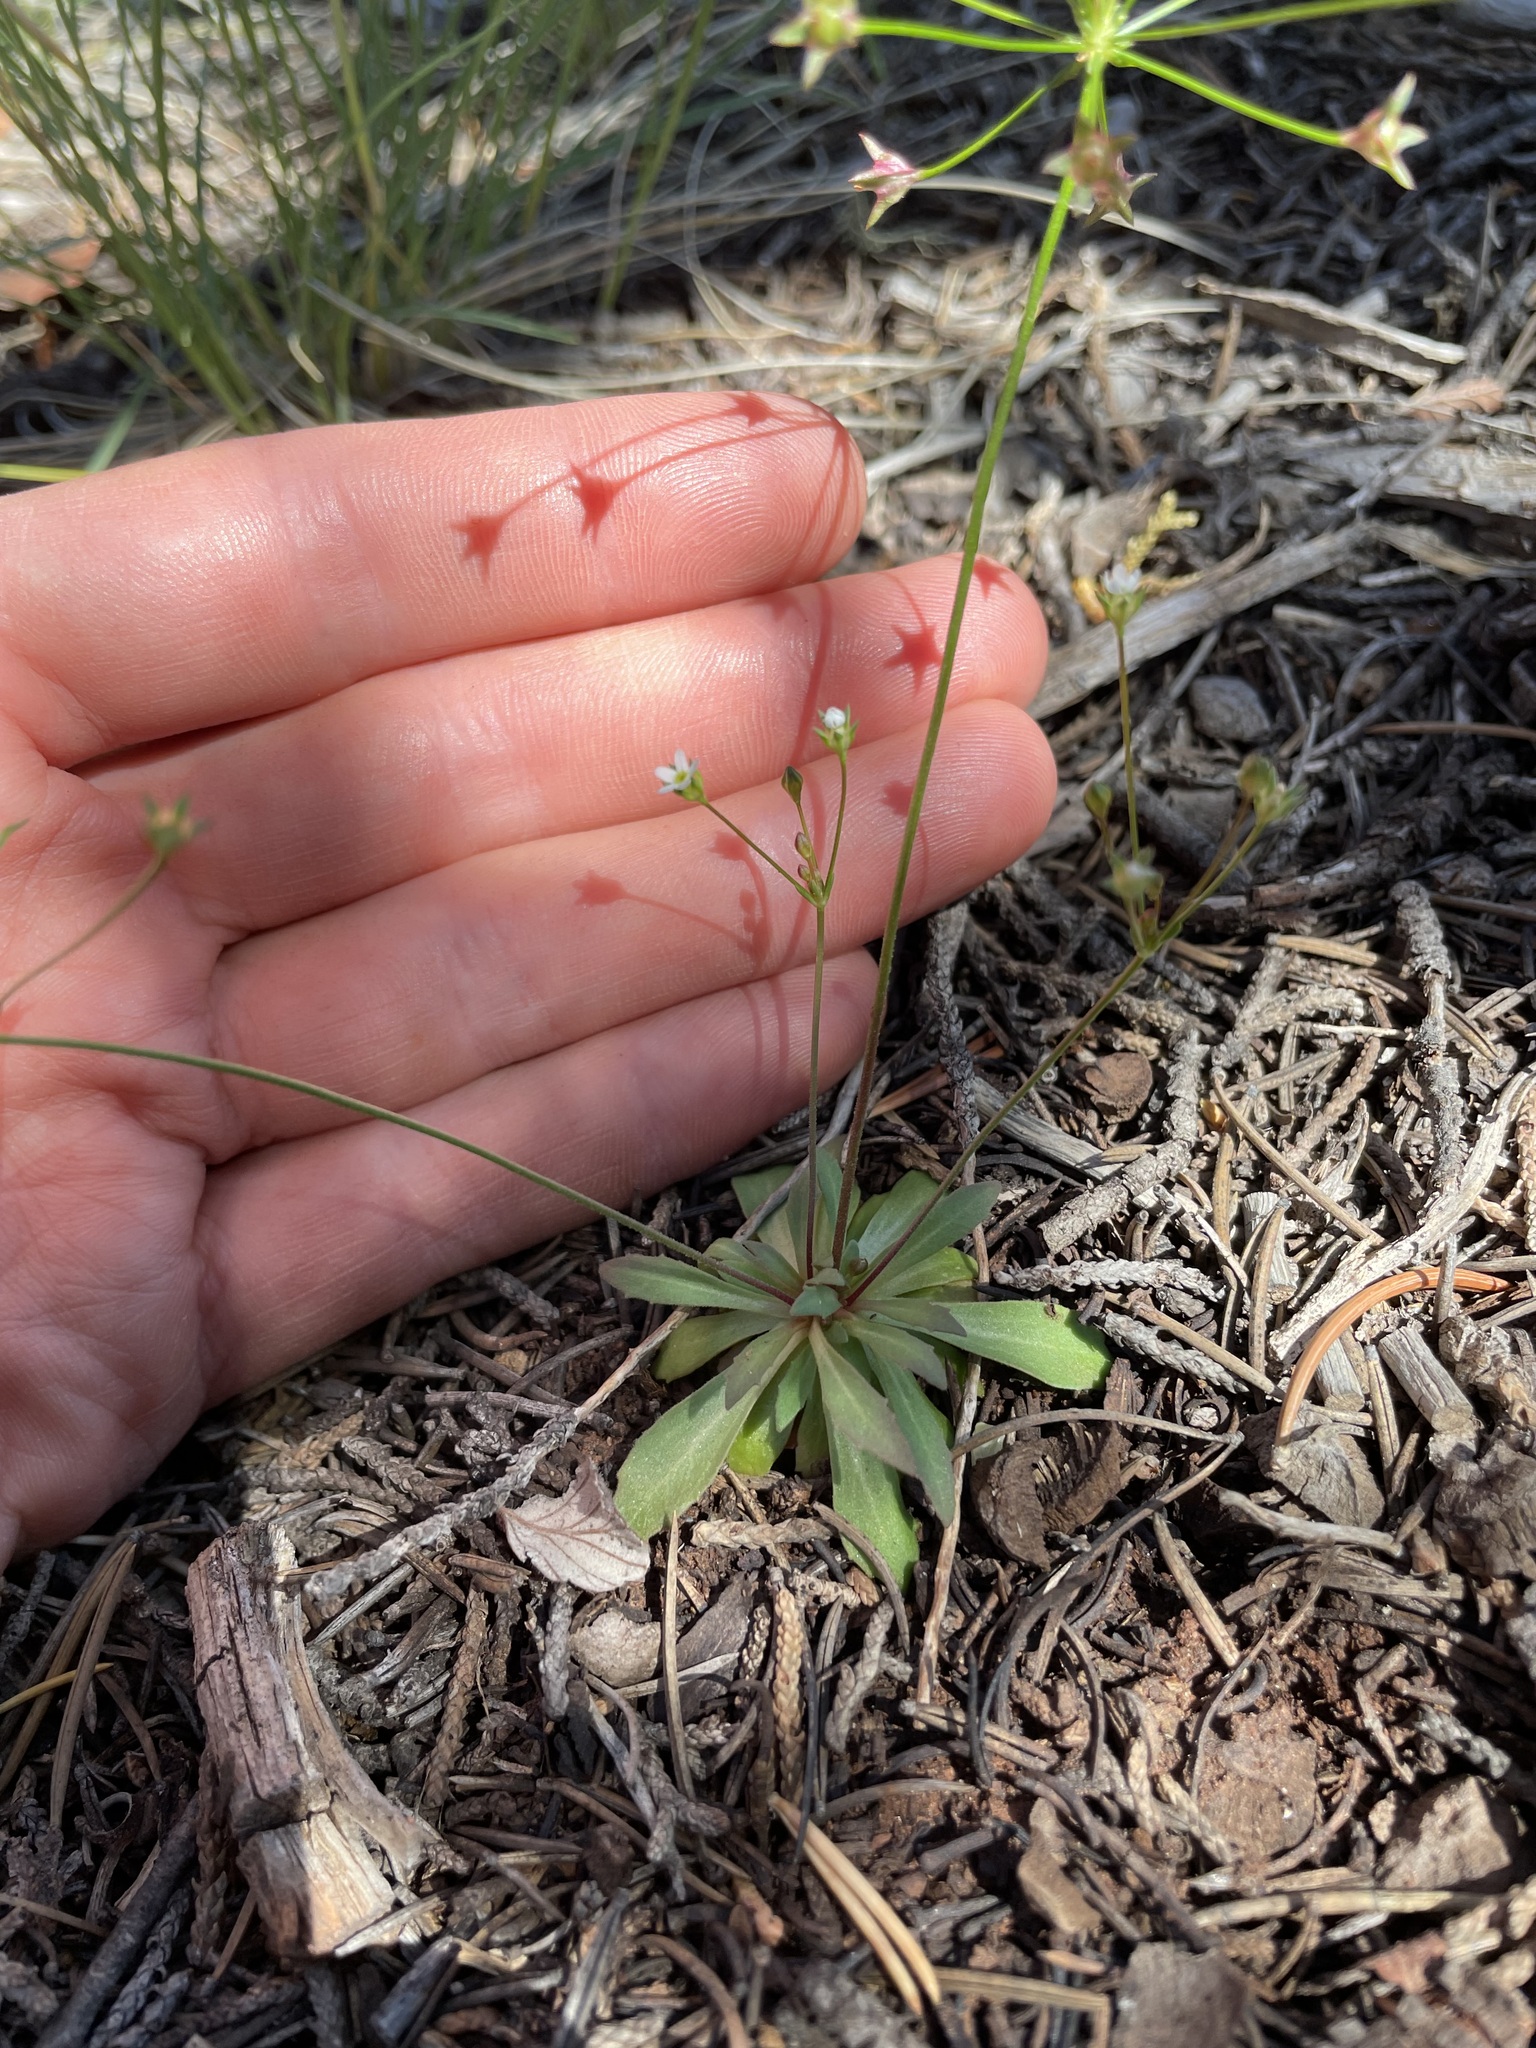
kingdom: Plantae
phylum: Tracheophyta
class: Magnoliopsida
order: Ericales
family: Primulaceae
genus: Androsace
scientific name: Androsace septentrionalis
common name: Hairy northern fairy-candelabra
